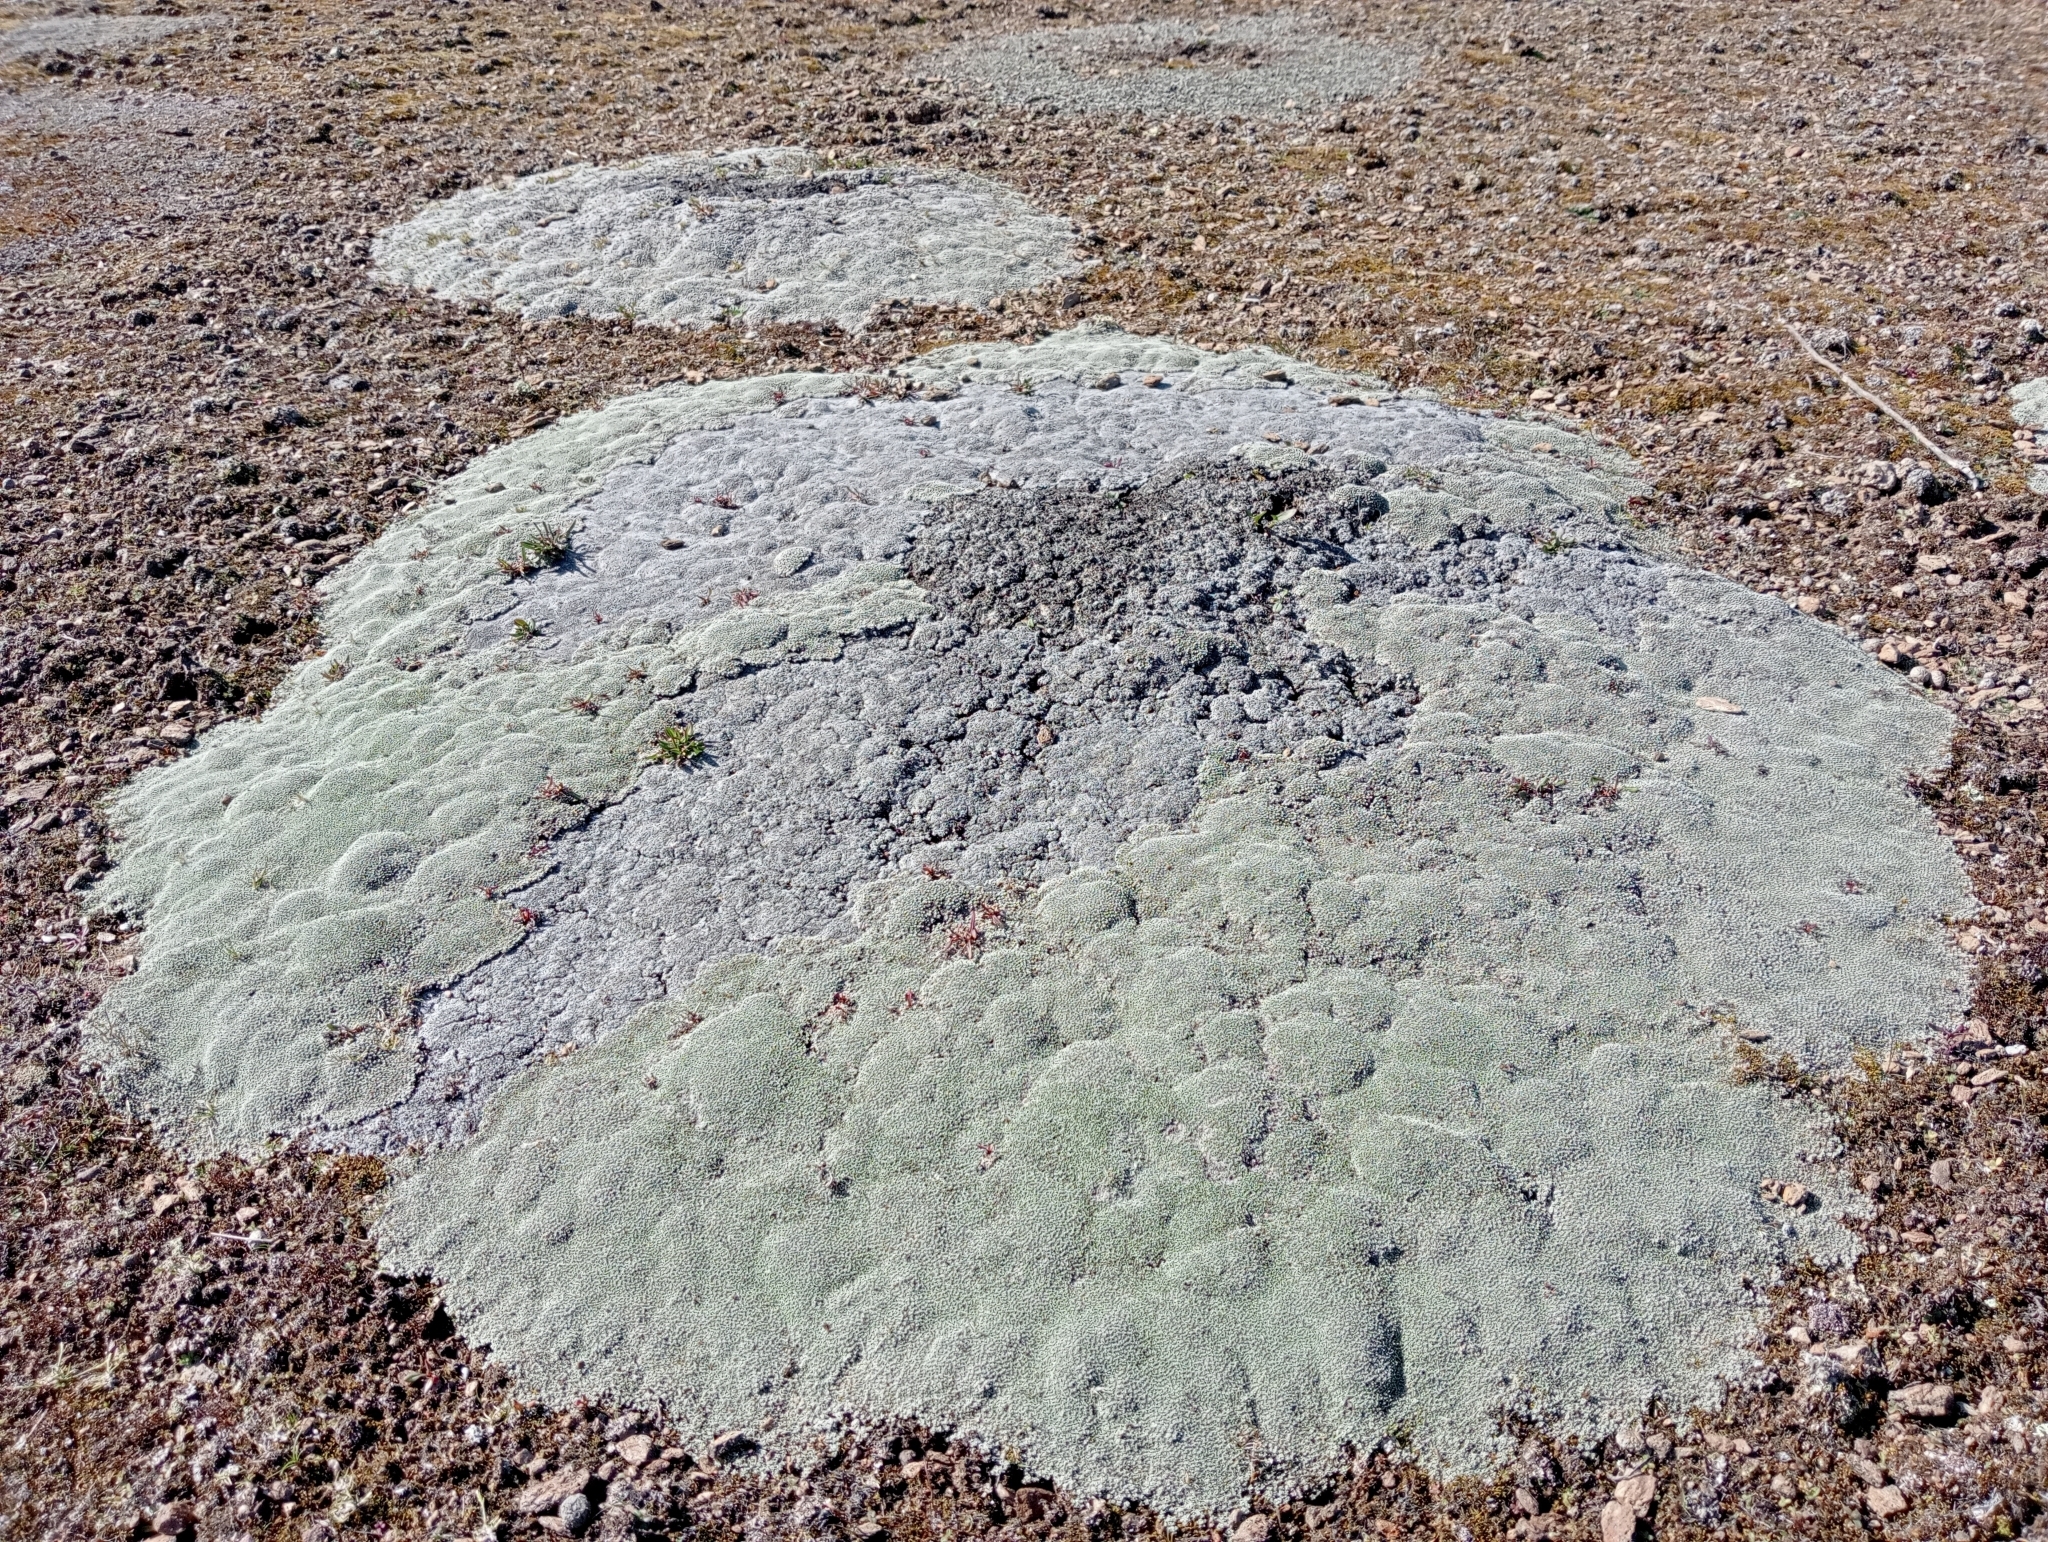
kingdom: Plantae
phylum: Tracheophyta
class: Magnoliopsida
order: Asterales
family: Asteraceae
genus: Raoulia
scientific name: Raoulia australis
